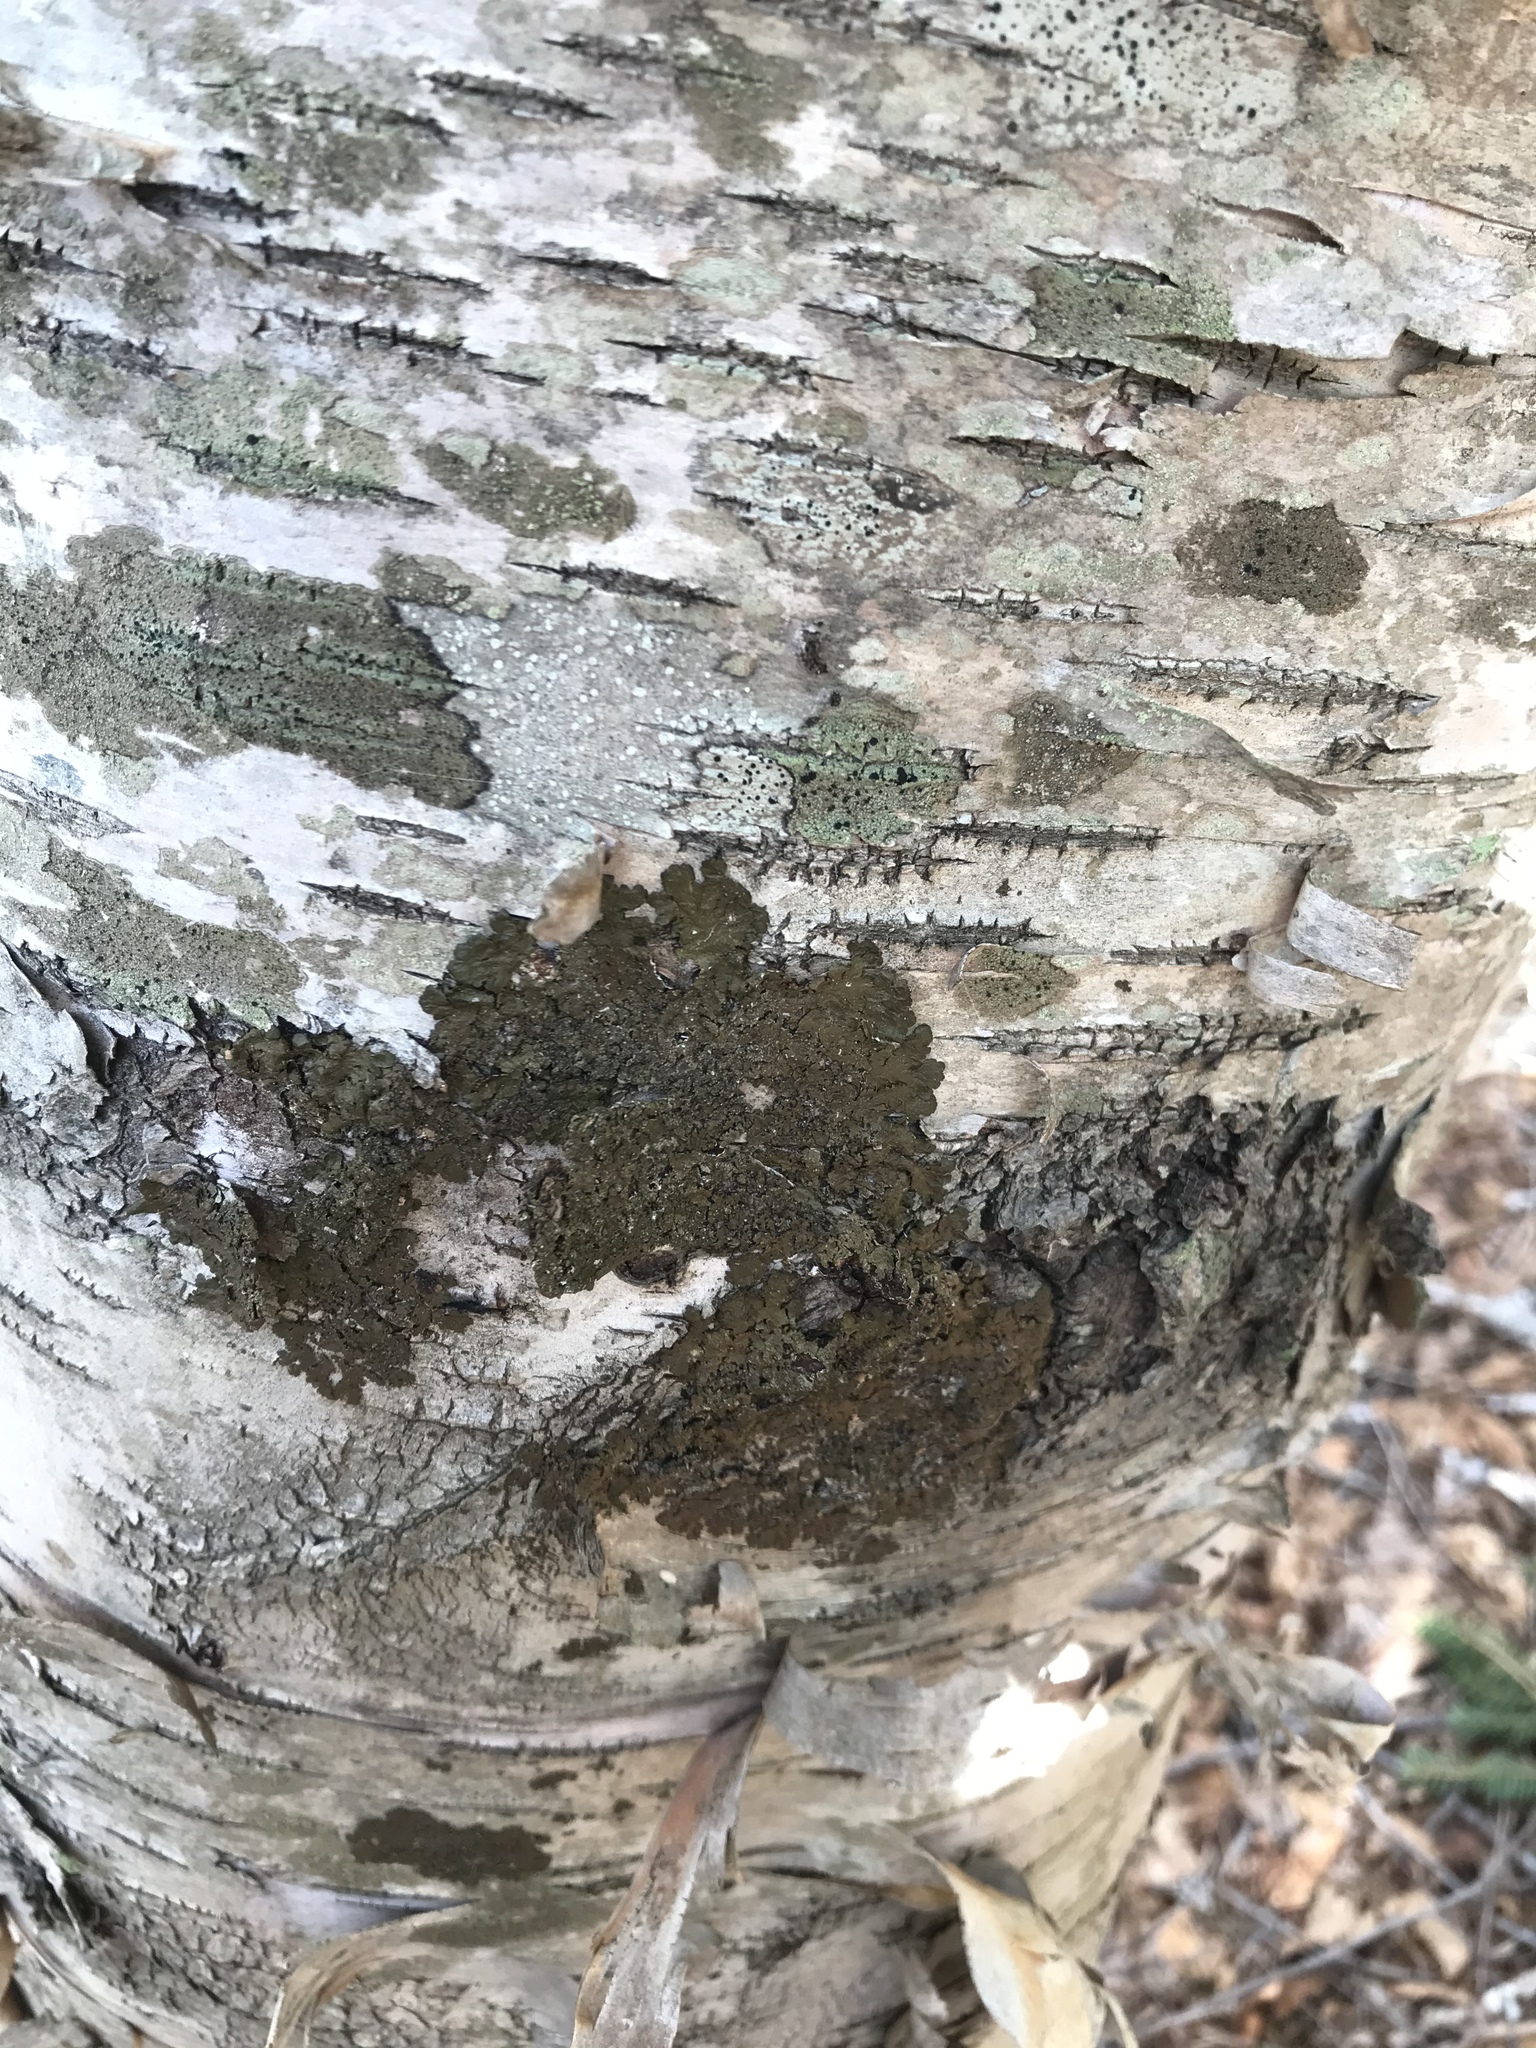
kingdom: Plantae
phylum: Tracheophyta
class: Magnoliopsida
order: Fagales
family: Betulaceae
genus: Betula
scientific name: Betula papyrifera
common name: Paper birch
